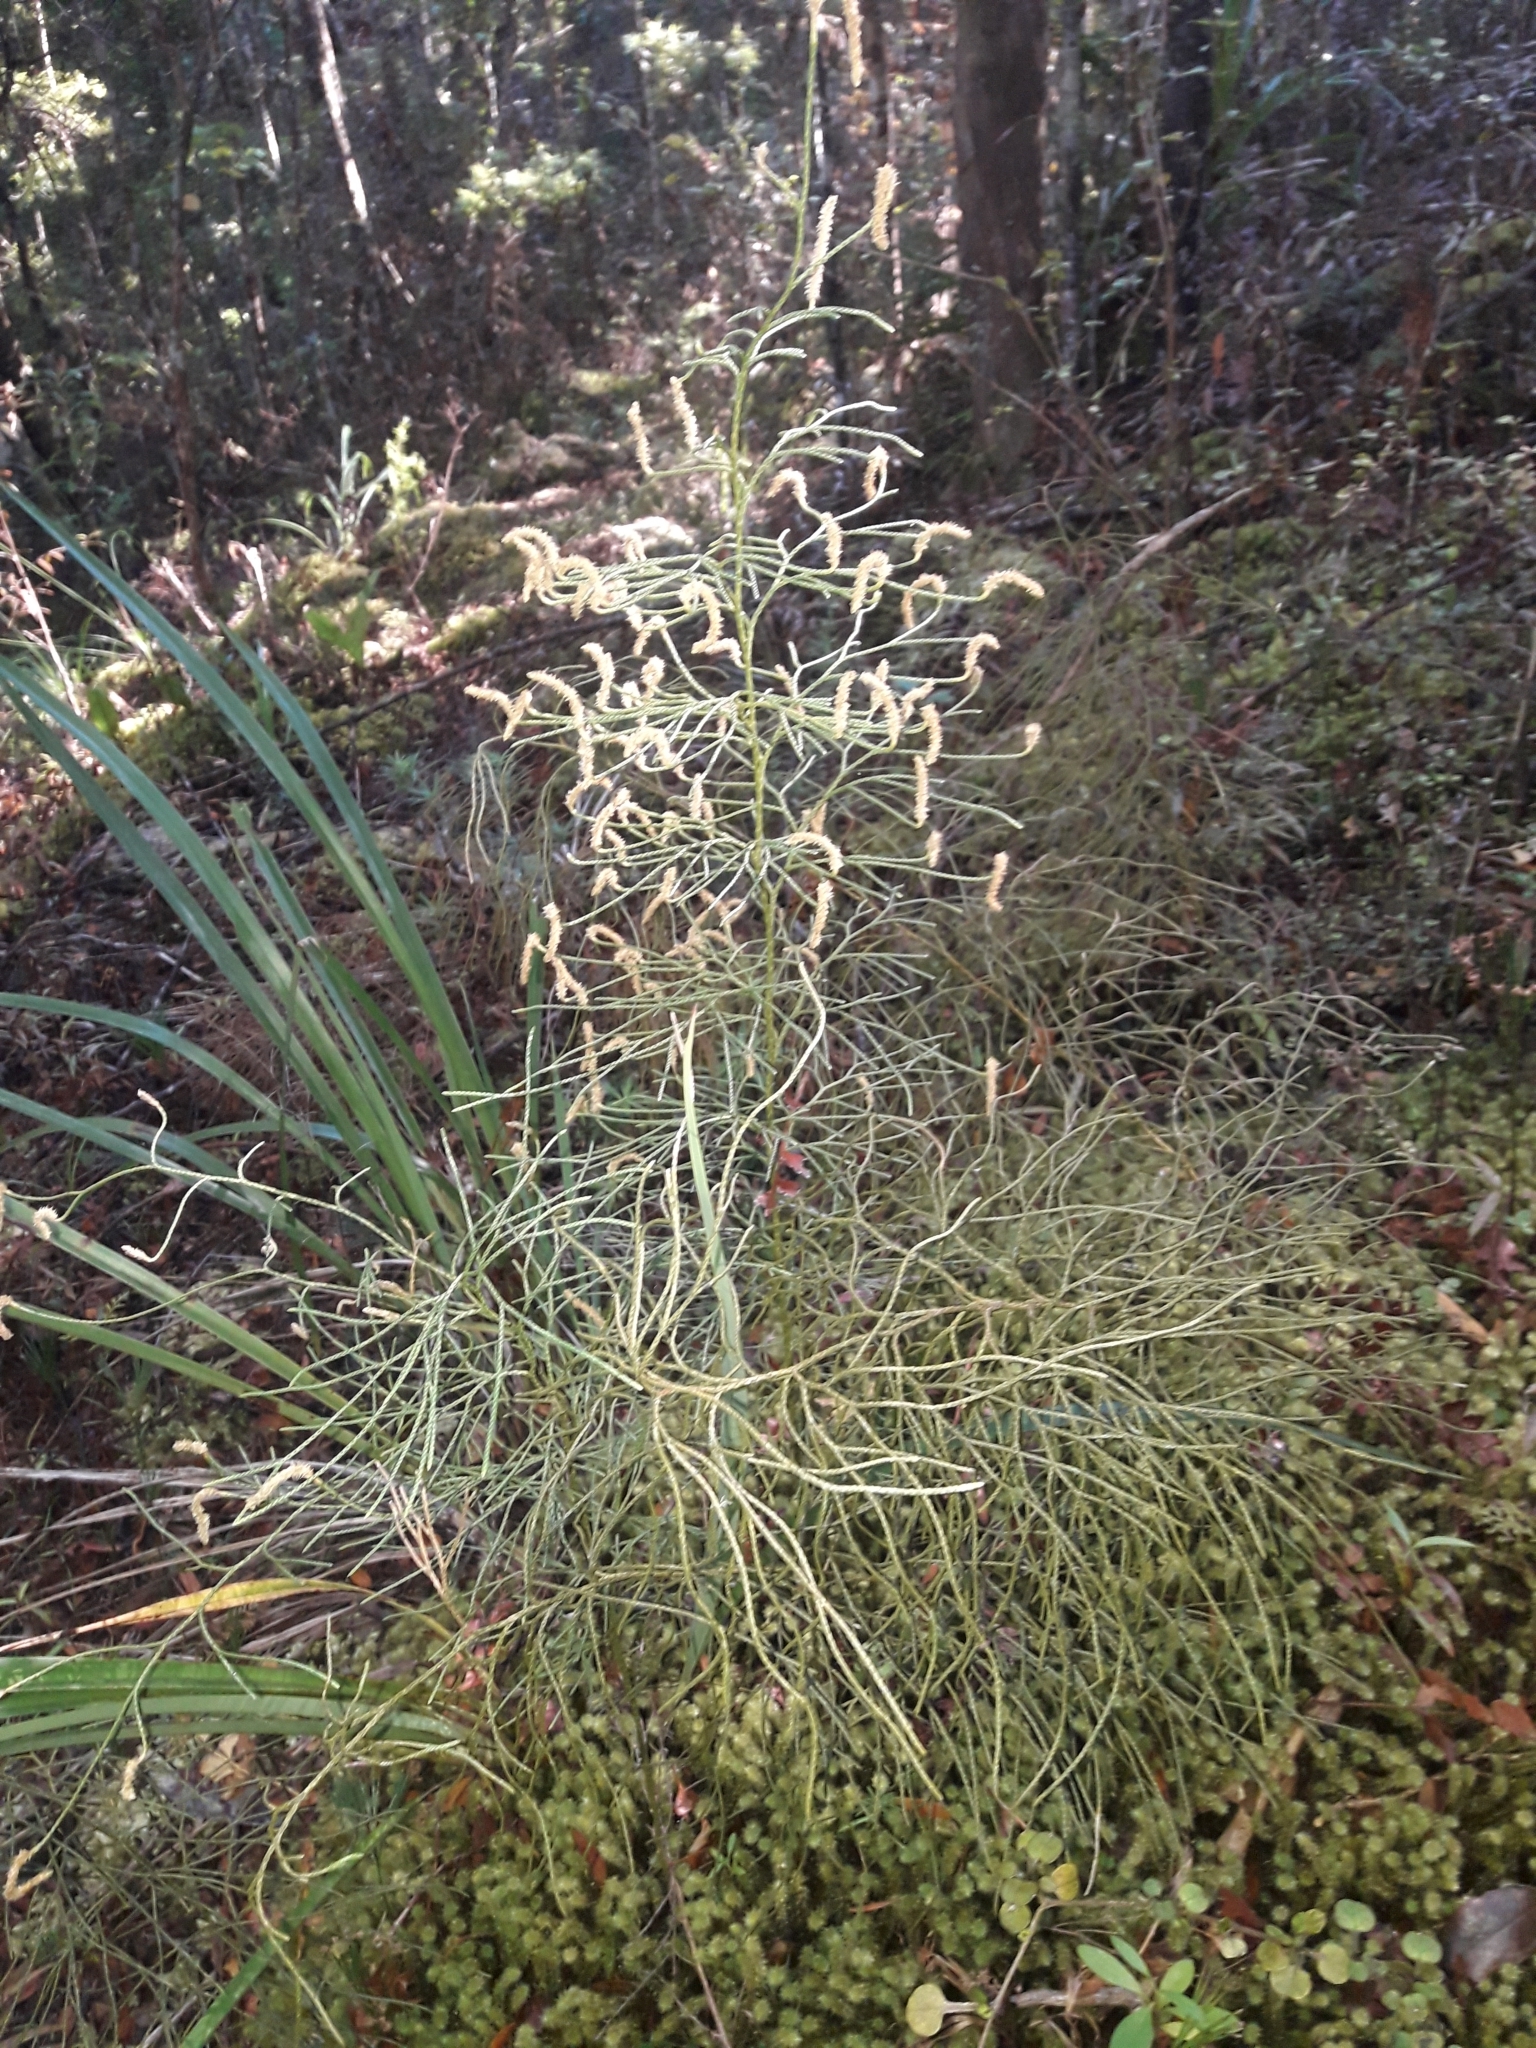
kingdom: Plantae
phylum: Tracheophyta
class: Lycopodiopsida
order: Lycopodiales
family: Lycopodiaceae
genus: Pseudolycopodium
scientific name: Pseudolycopodium densum
